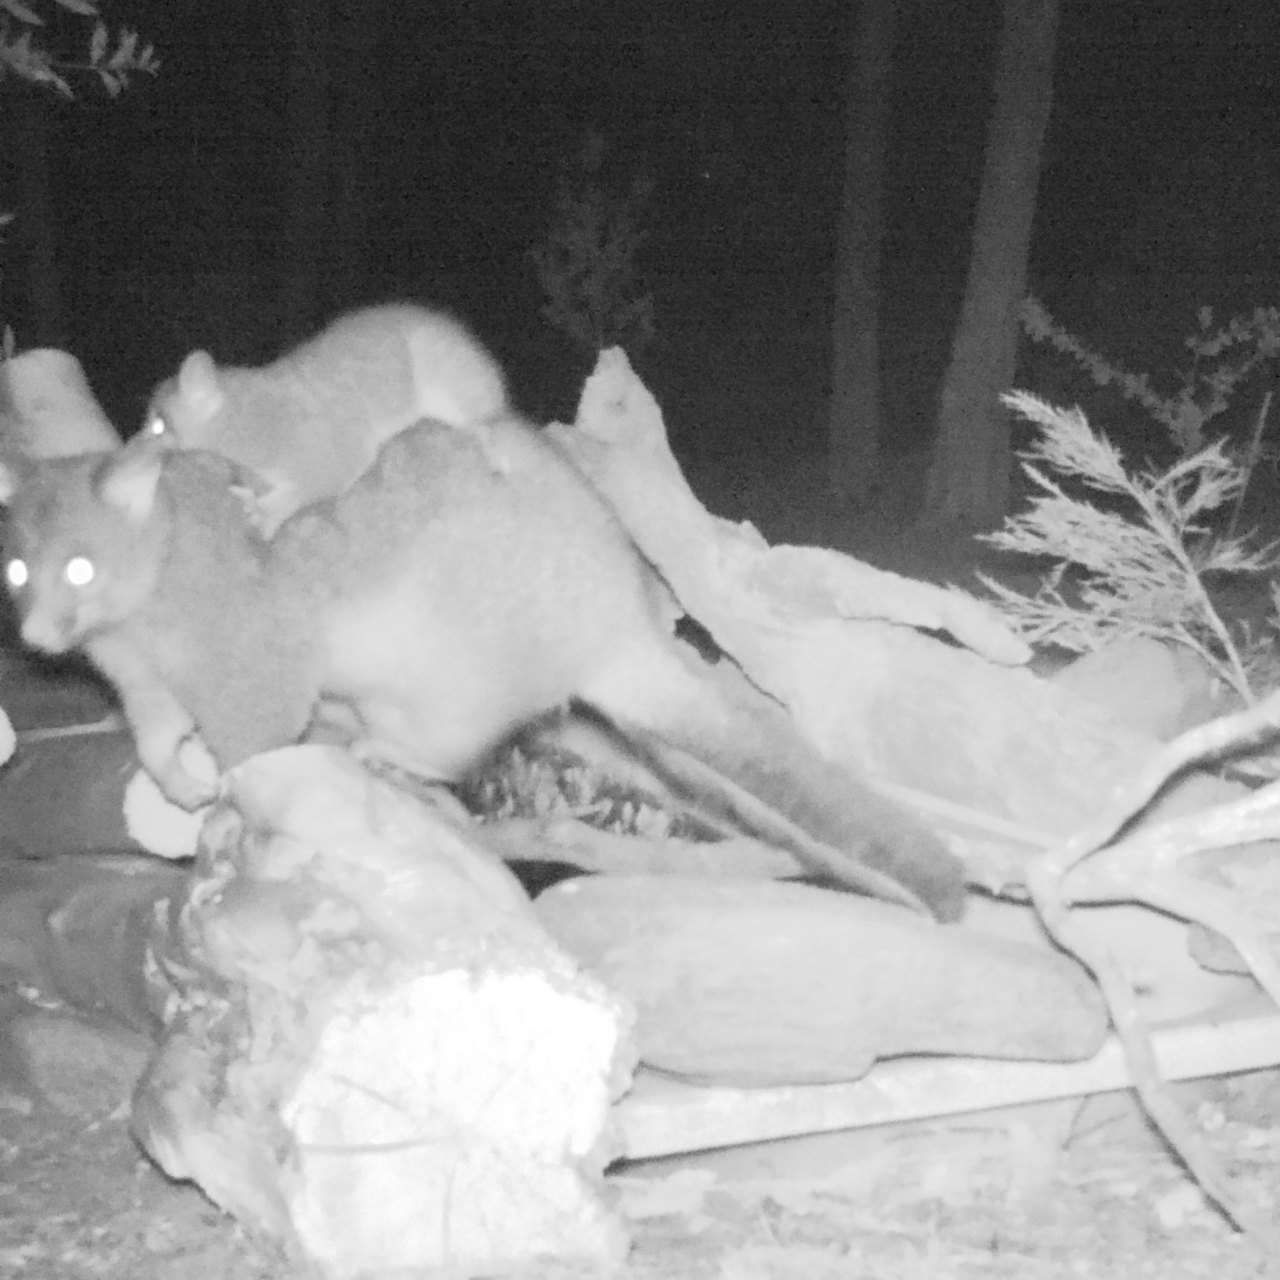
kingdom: Animalia
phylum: Chordata
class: Mammalia
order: Diprotodontia
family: Phalangeridae
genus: Trichosurus
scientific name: Trichosurus vulpecula
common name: Common brushtail
